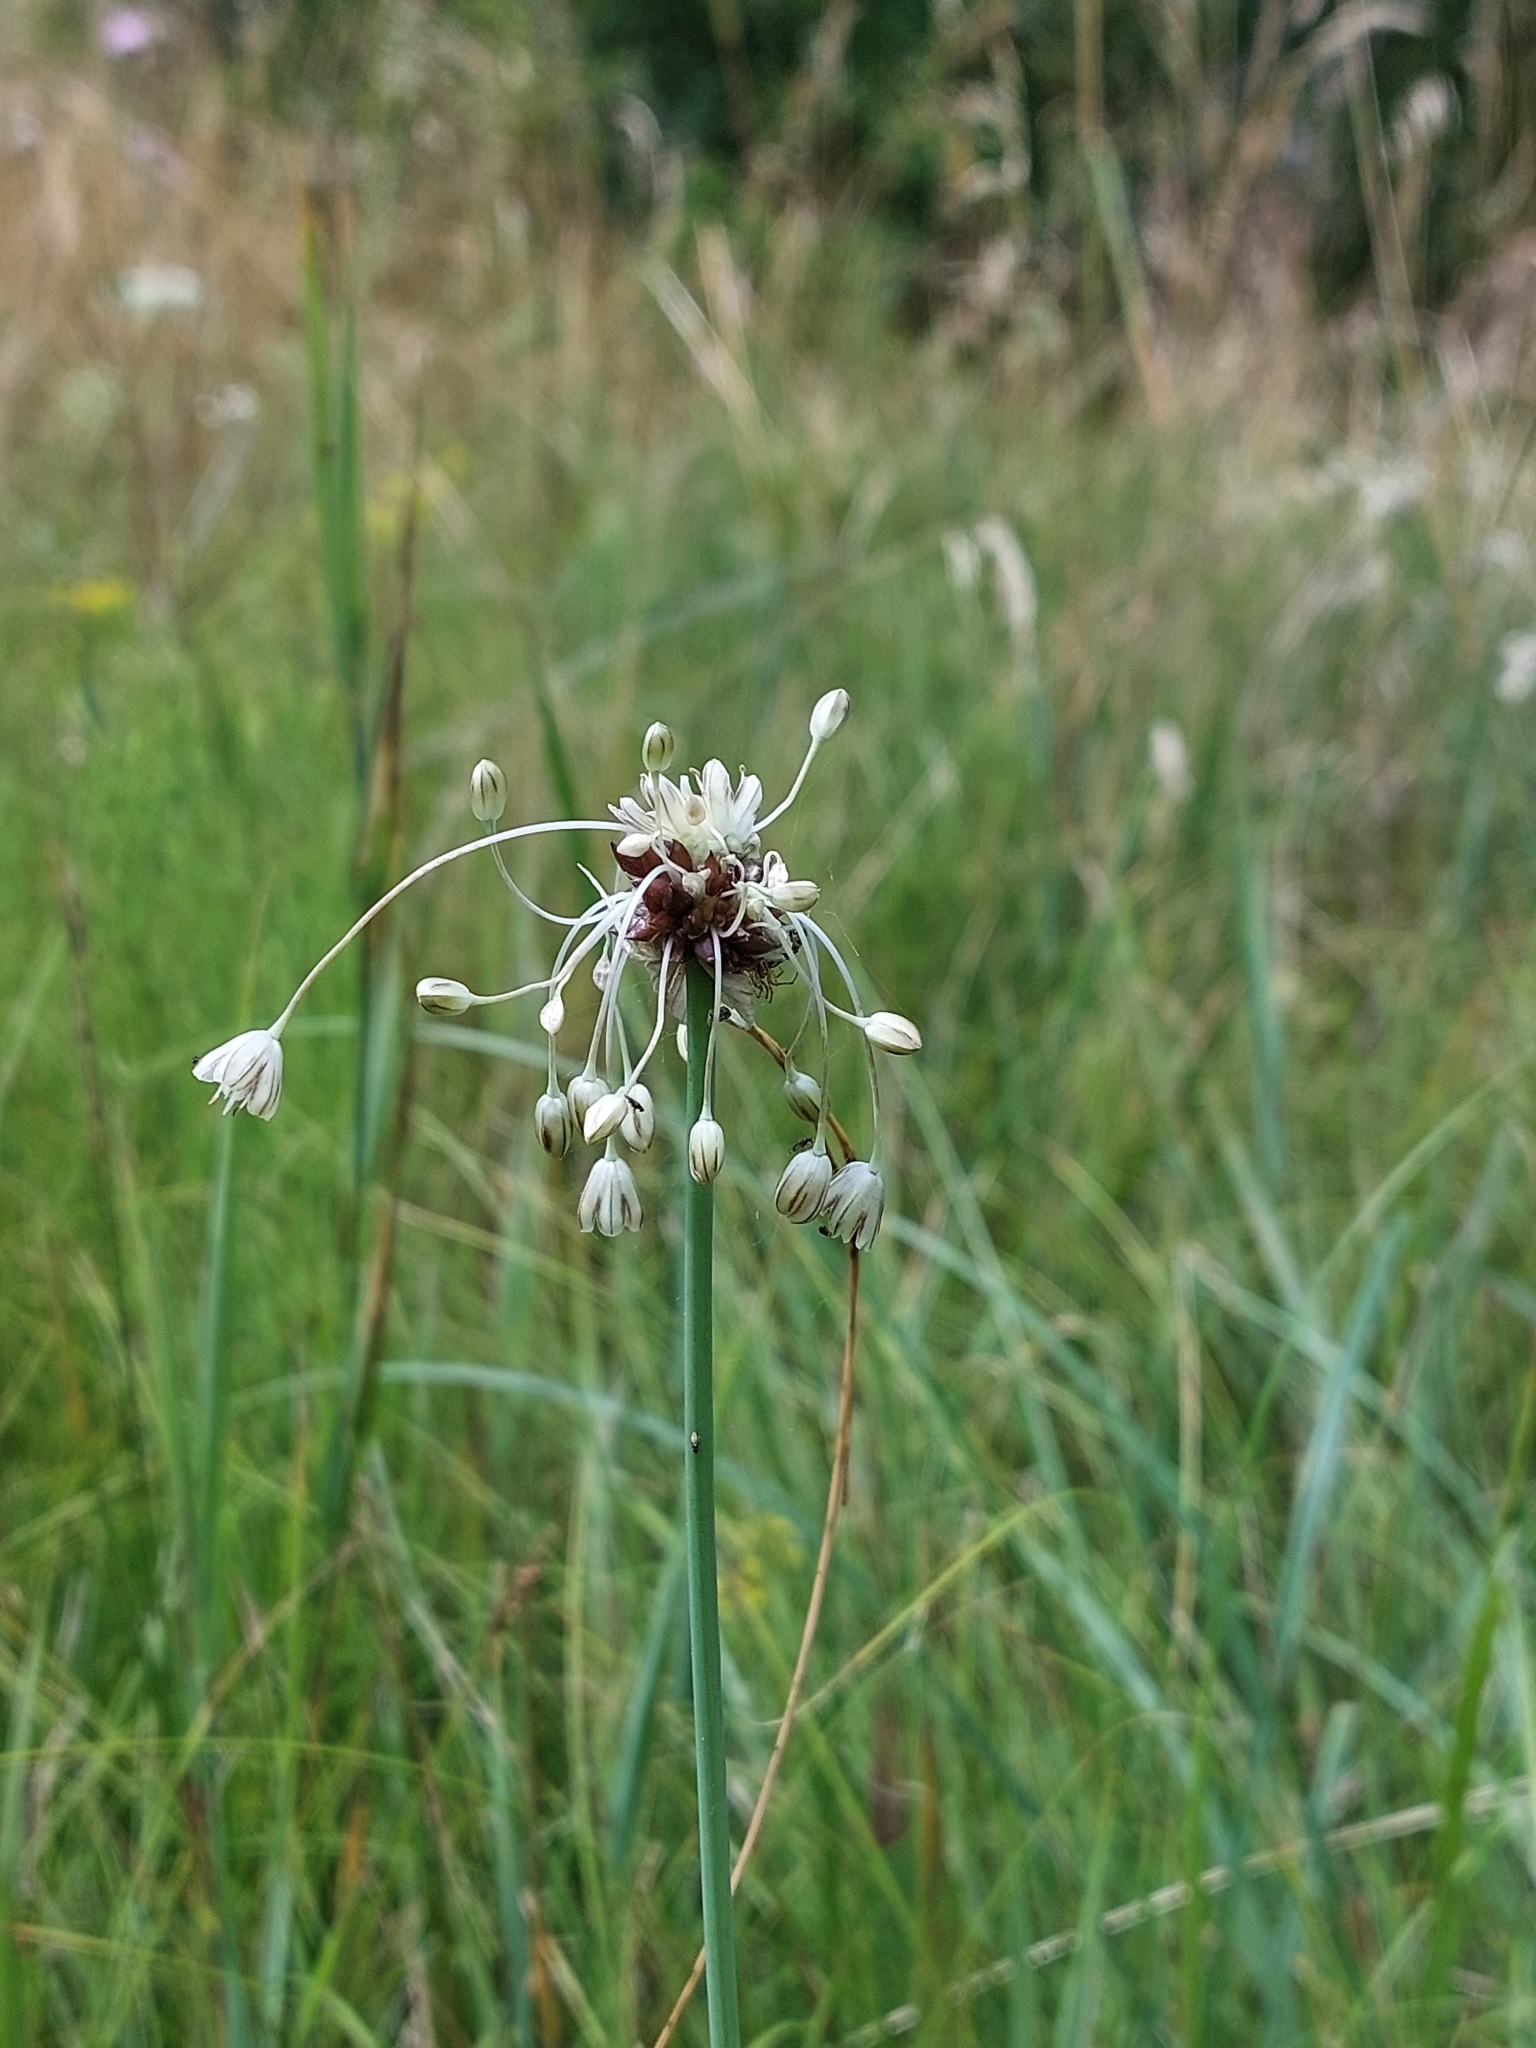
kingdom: Plantae
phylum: Tracheophyta
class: Liliopsida
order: Asparagales
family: Amaryllidaceae
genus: Allium
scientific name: Allium oleraceum
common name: Field garlic
